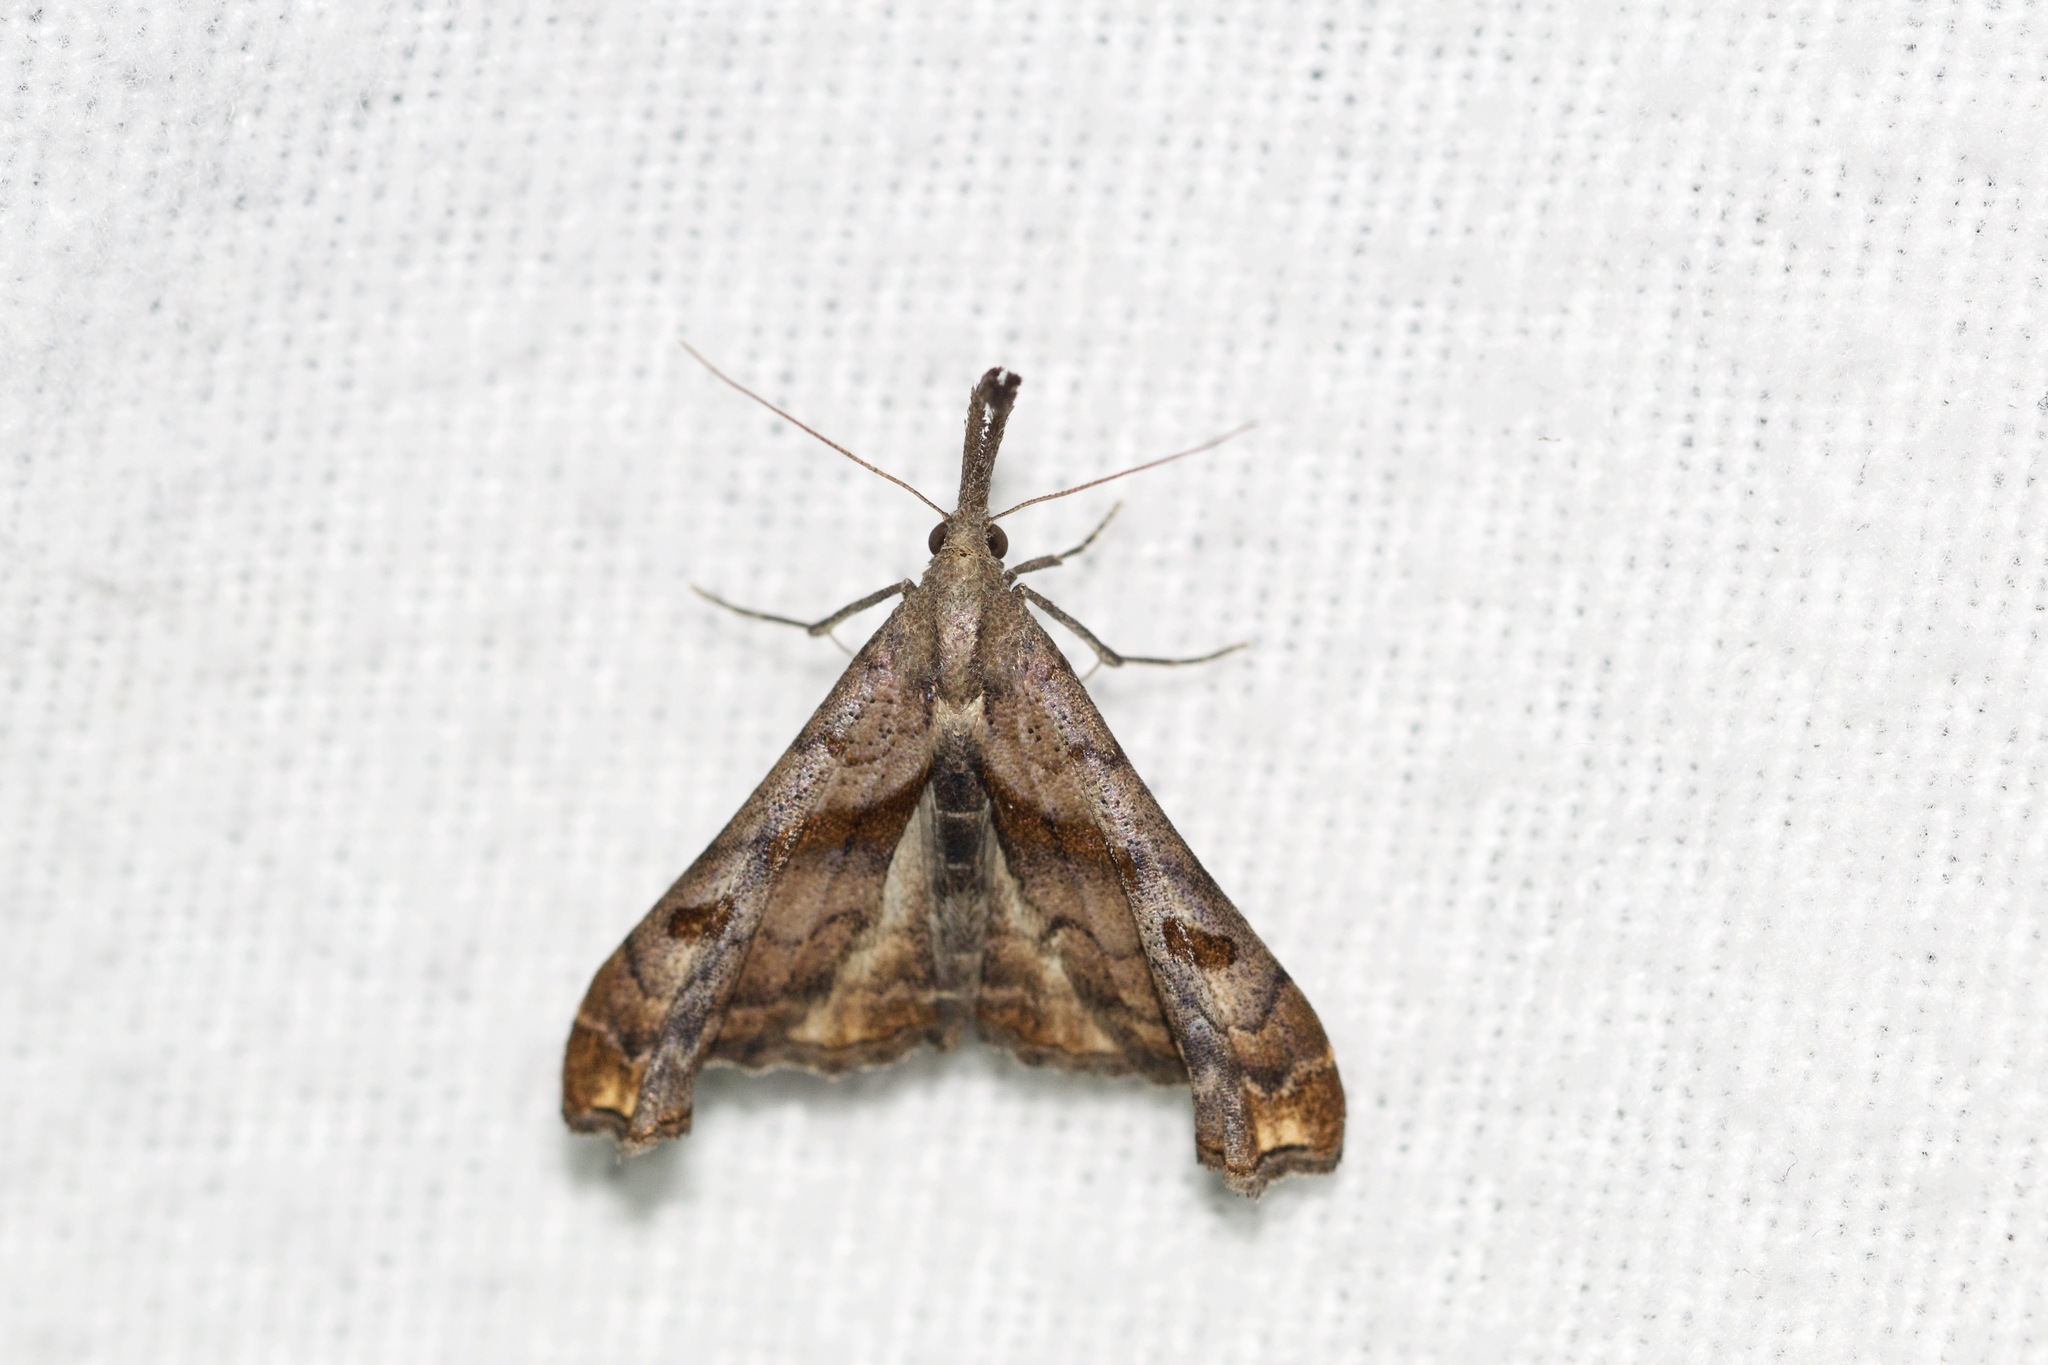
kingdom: Animalia
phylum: Arthropoda
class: Insecta
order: Lepidoptera
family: Erebidae
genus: Palthis
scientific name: Palthis angulalis
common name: Dark-spotted palthis moth
